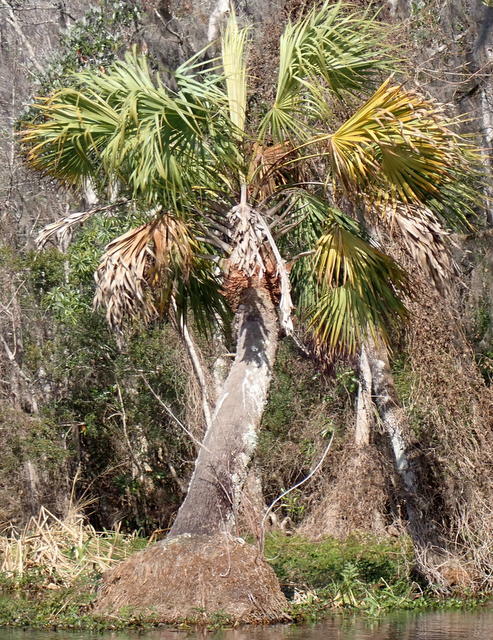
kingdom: Plantae
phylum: Tracheophyta
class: Liliopsida
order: Arecales
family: Arecaceae
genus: Sabal
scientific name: Sabal palmetto
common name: Blue palmetto
